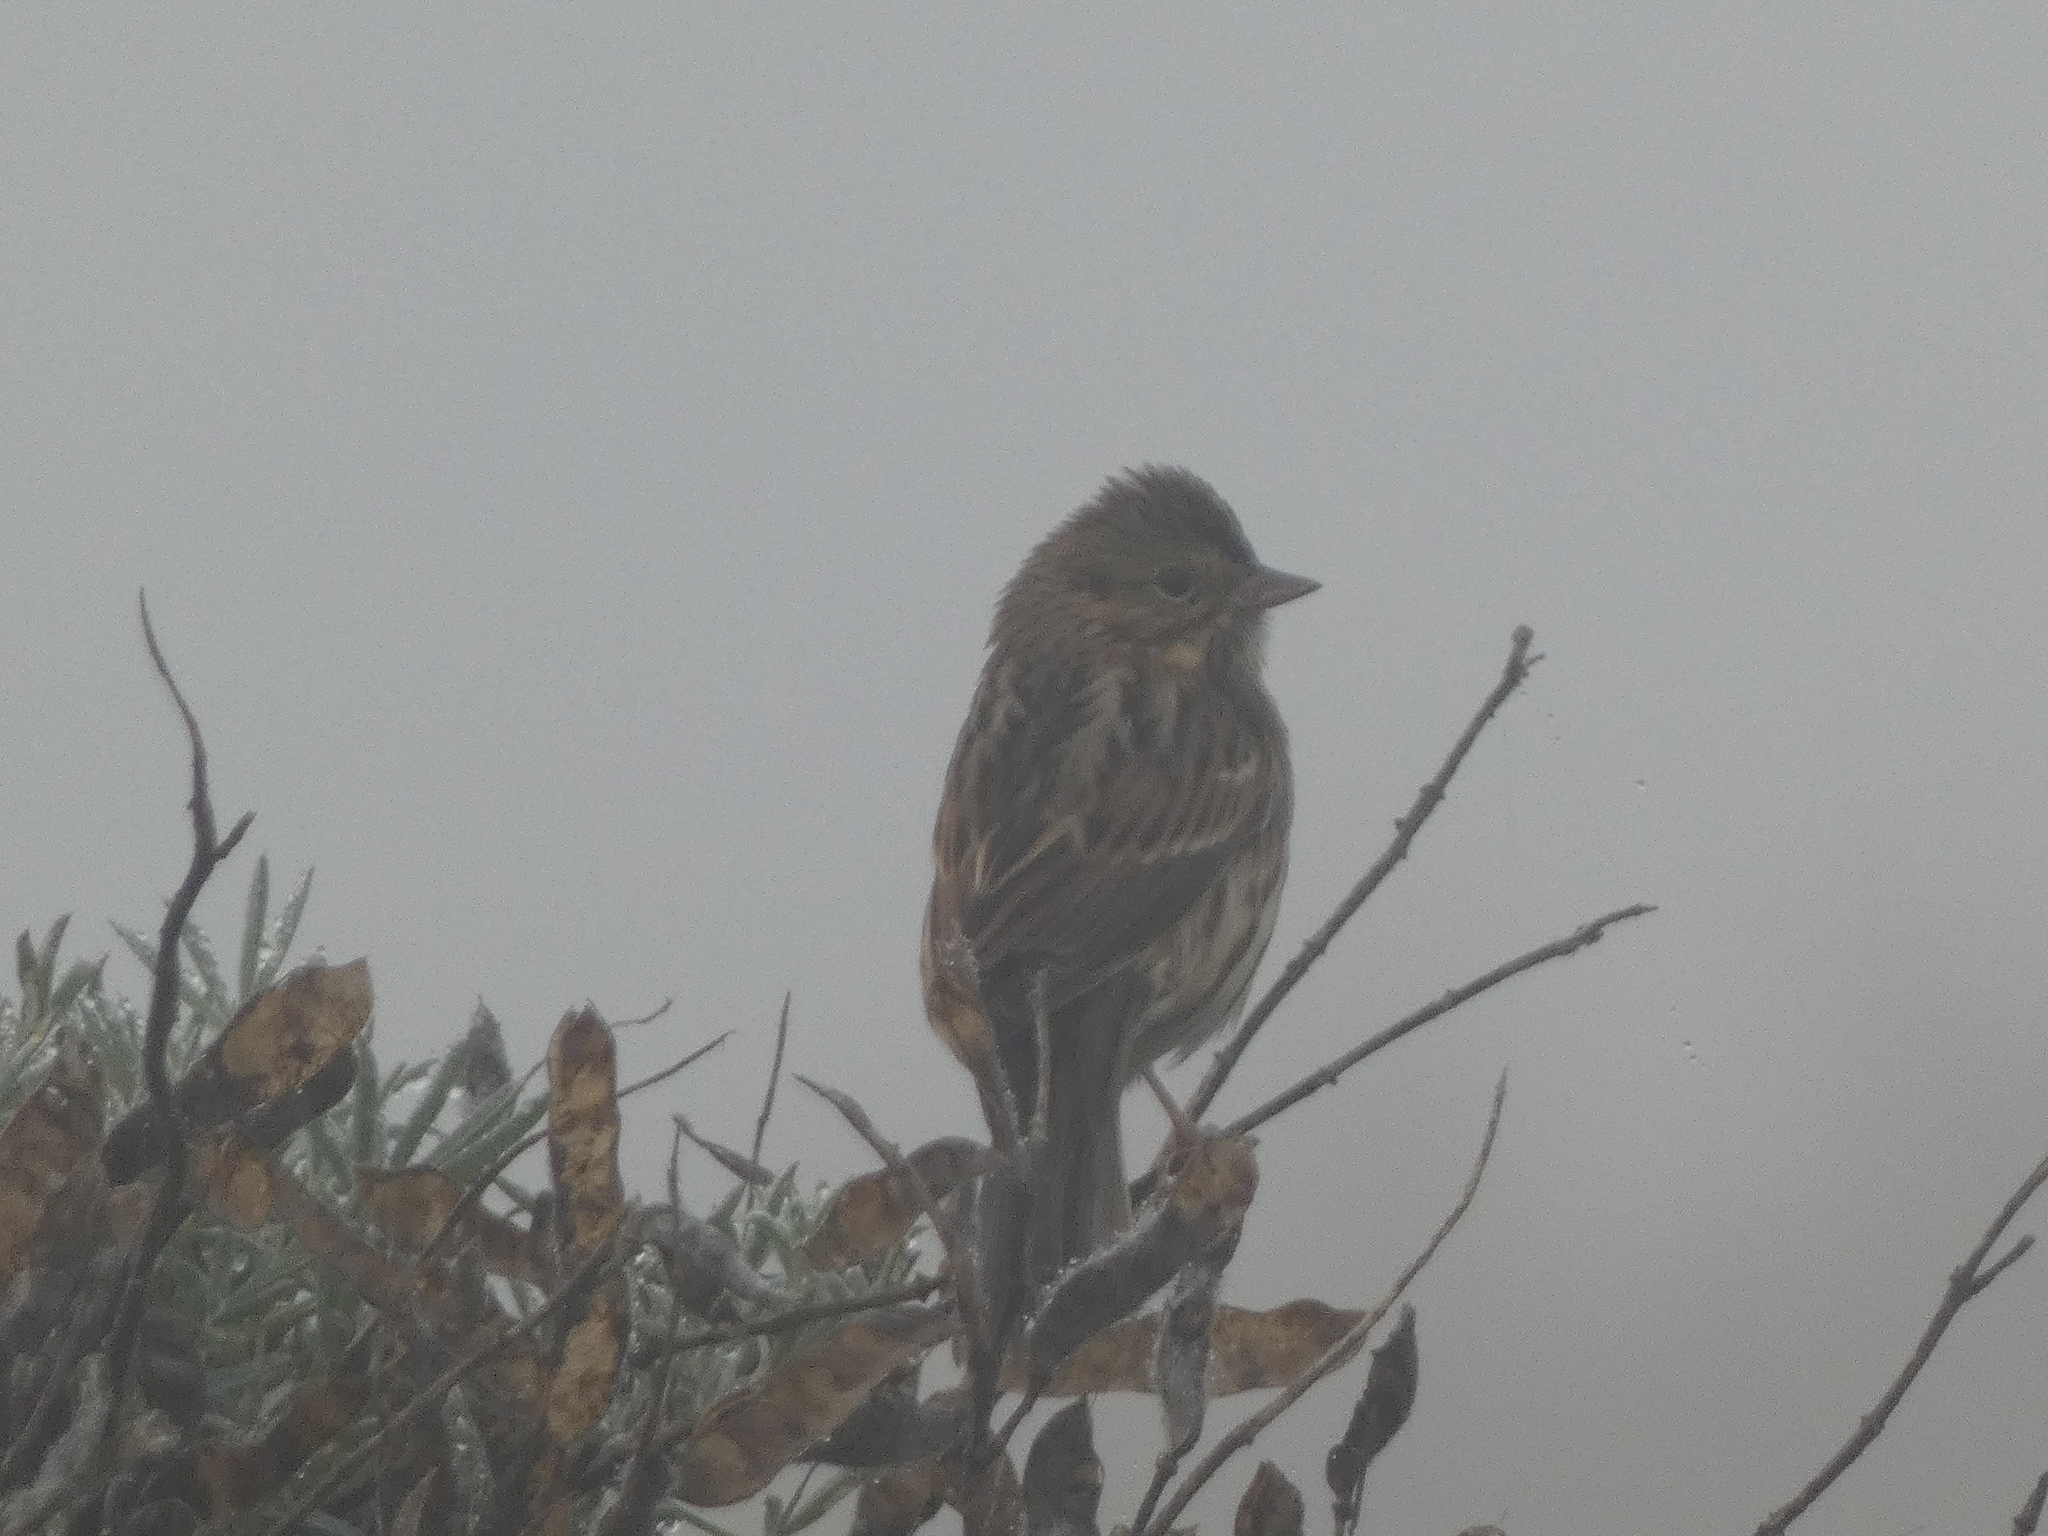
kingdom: Animalia
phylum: Chordata
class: Aves
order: Passeriformes
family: Passerellidae
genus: Passerculus
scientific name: Passerculus sandwichensis
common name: Savannah sparrow
